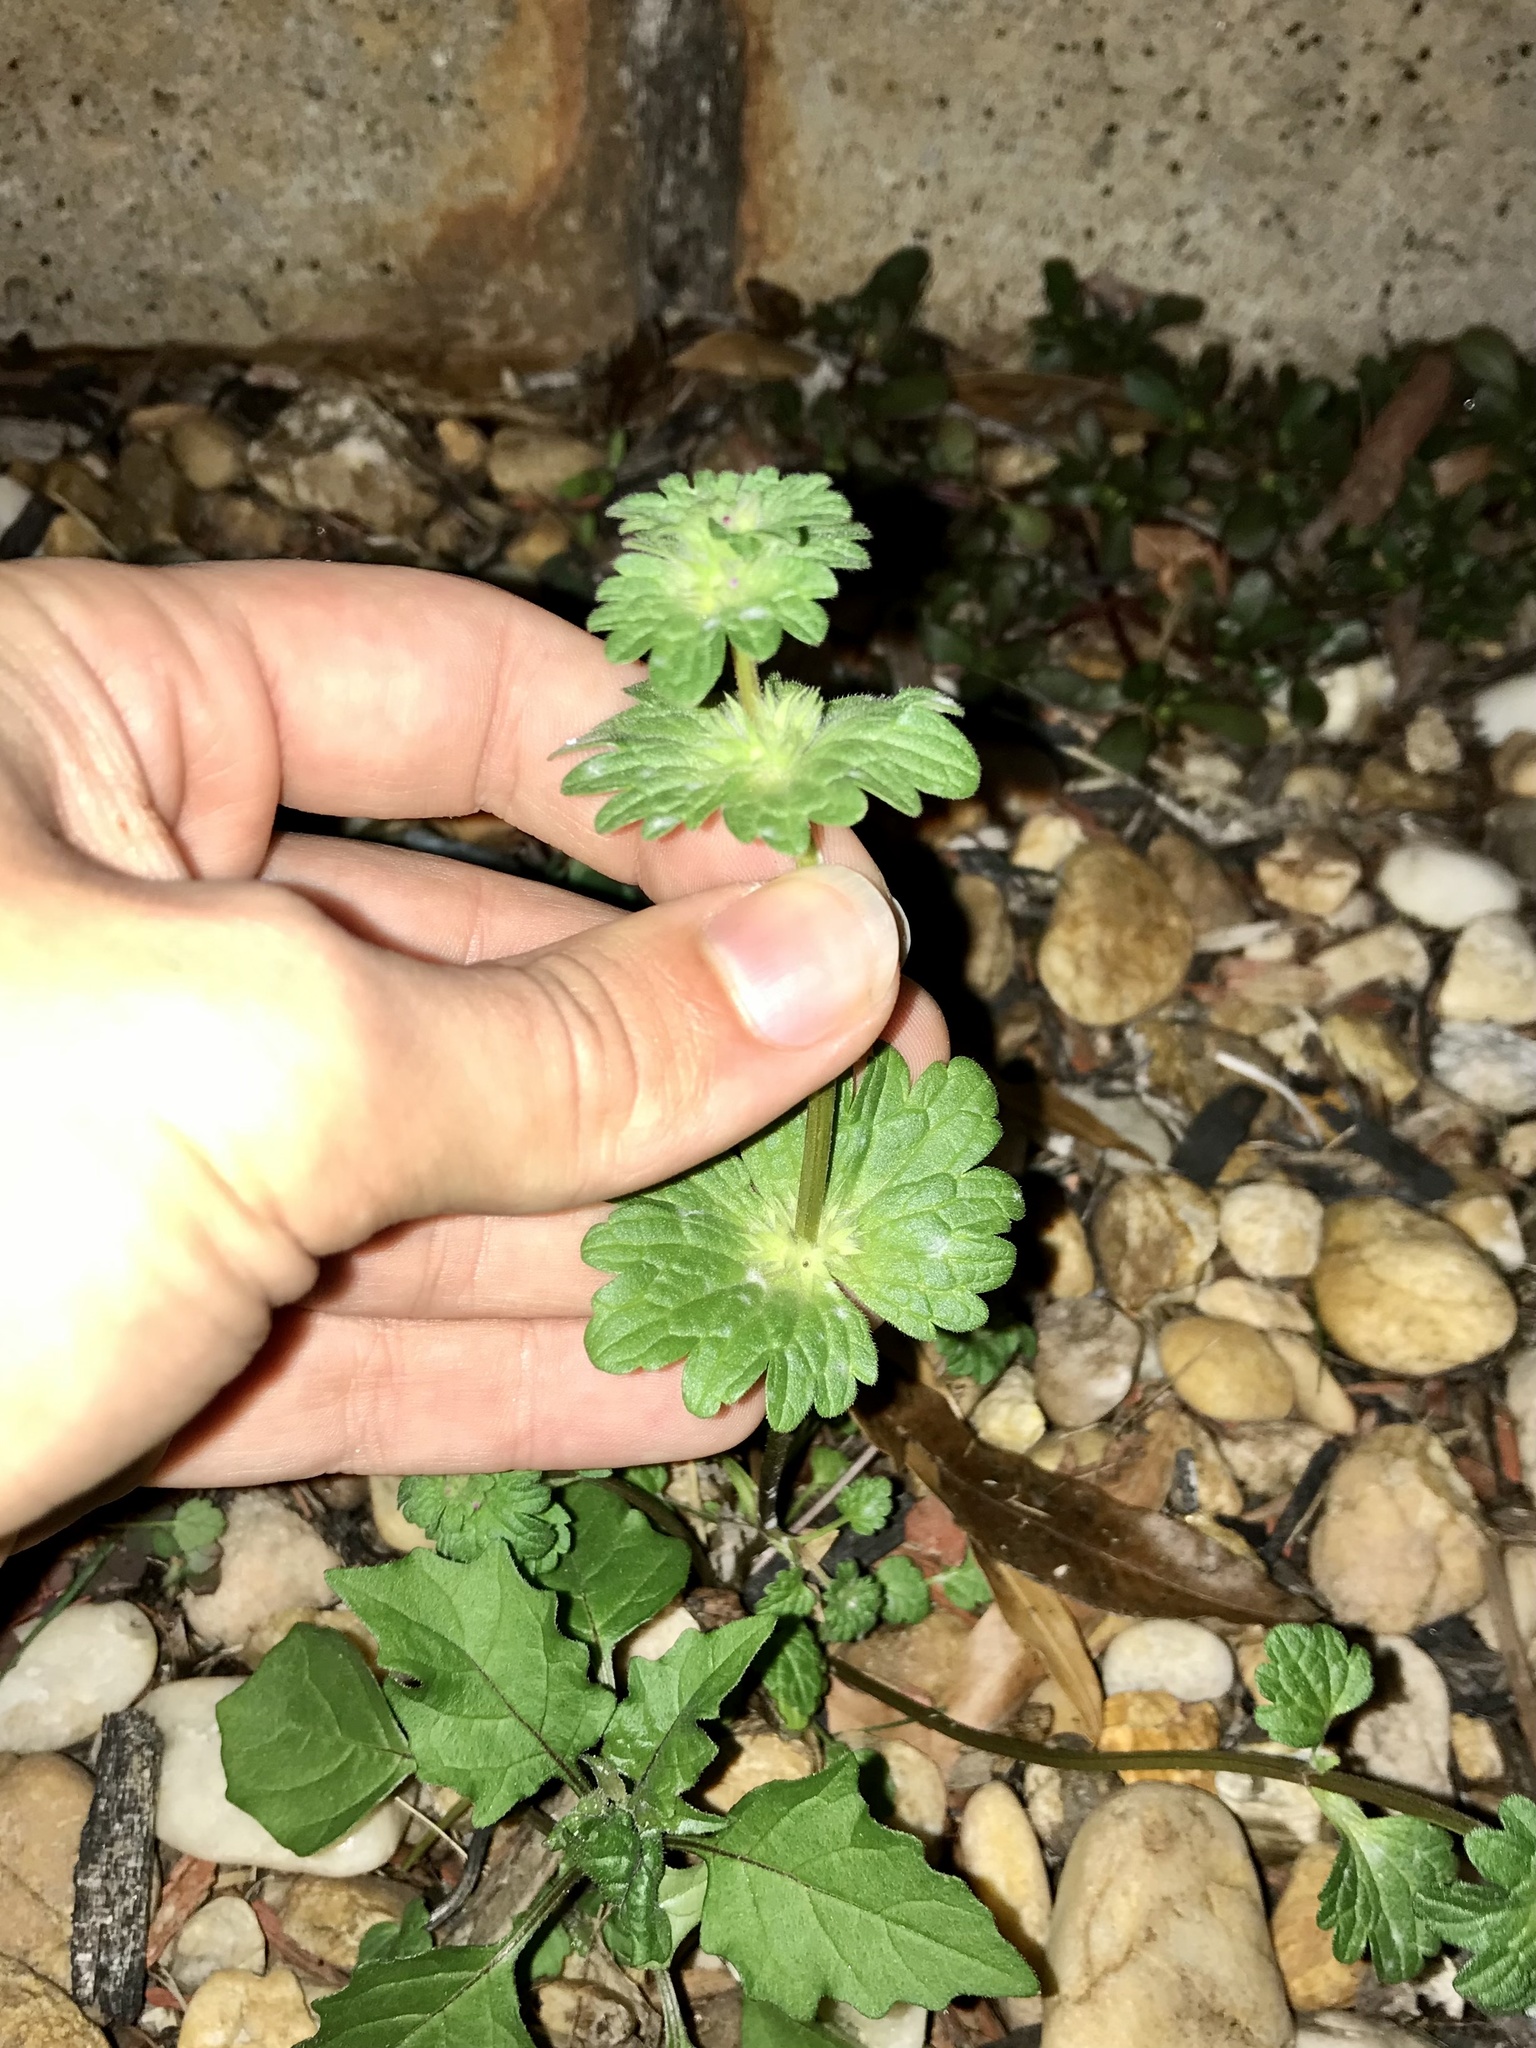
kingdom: Plantae
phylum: Tracheophyta
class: Magnoliopsida
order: Lamiales
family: Lamiaceae
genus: Lamium
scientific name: Lamium amplexicaule
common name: Henbit dead-nettle
